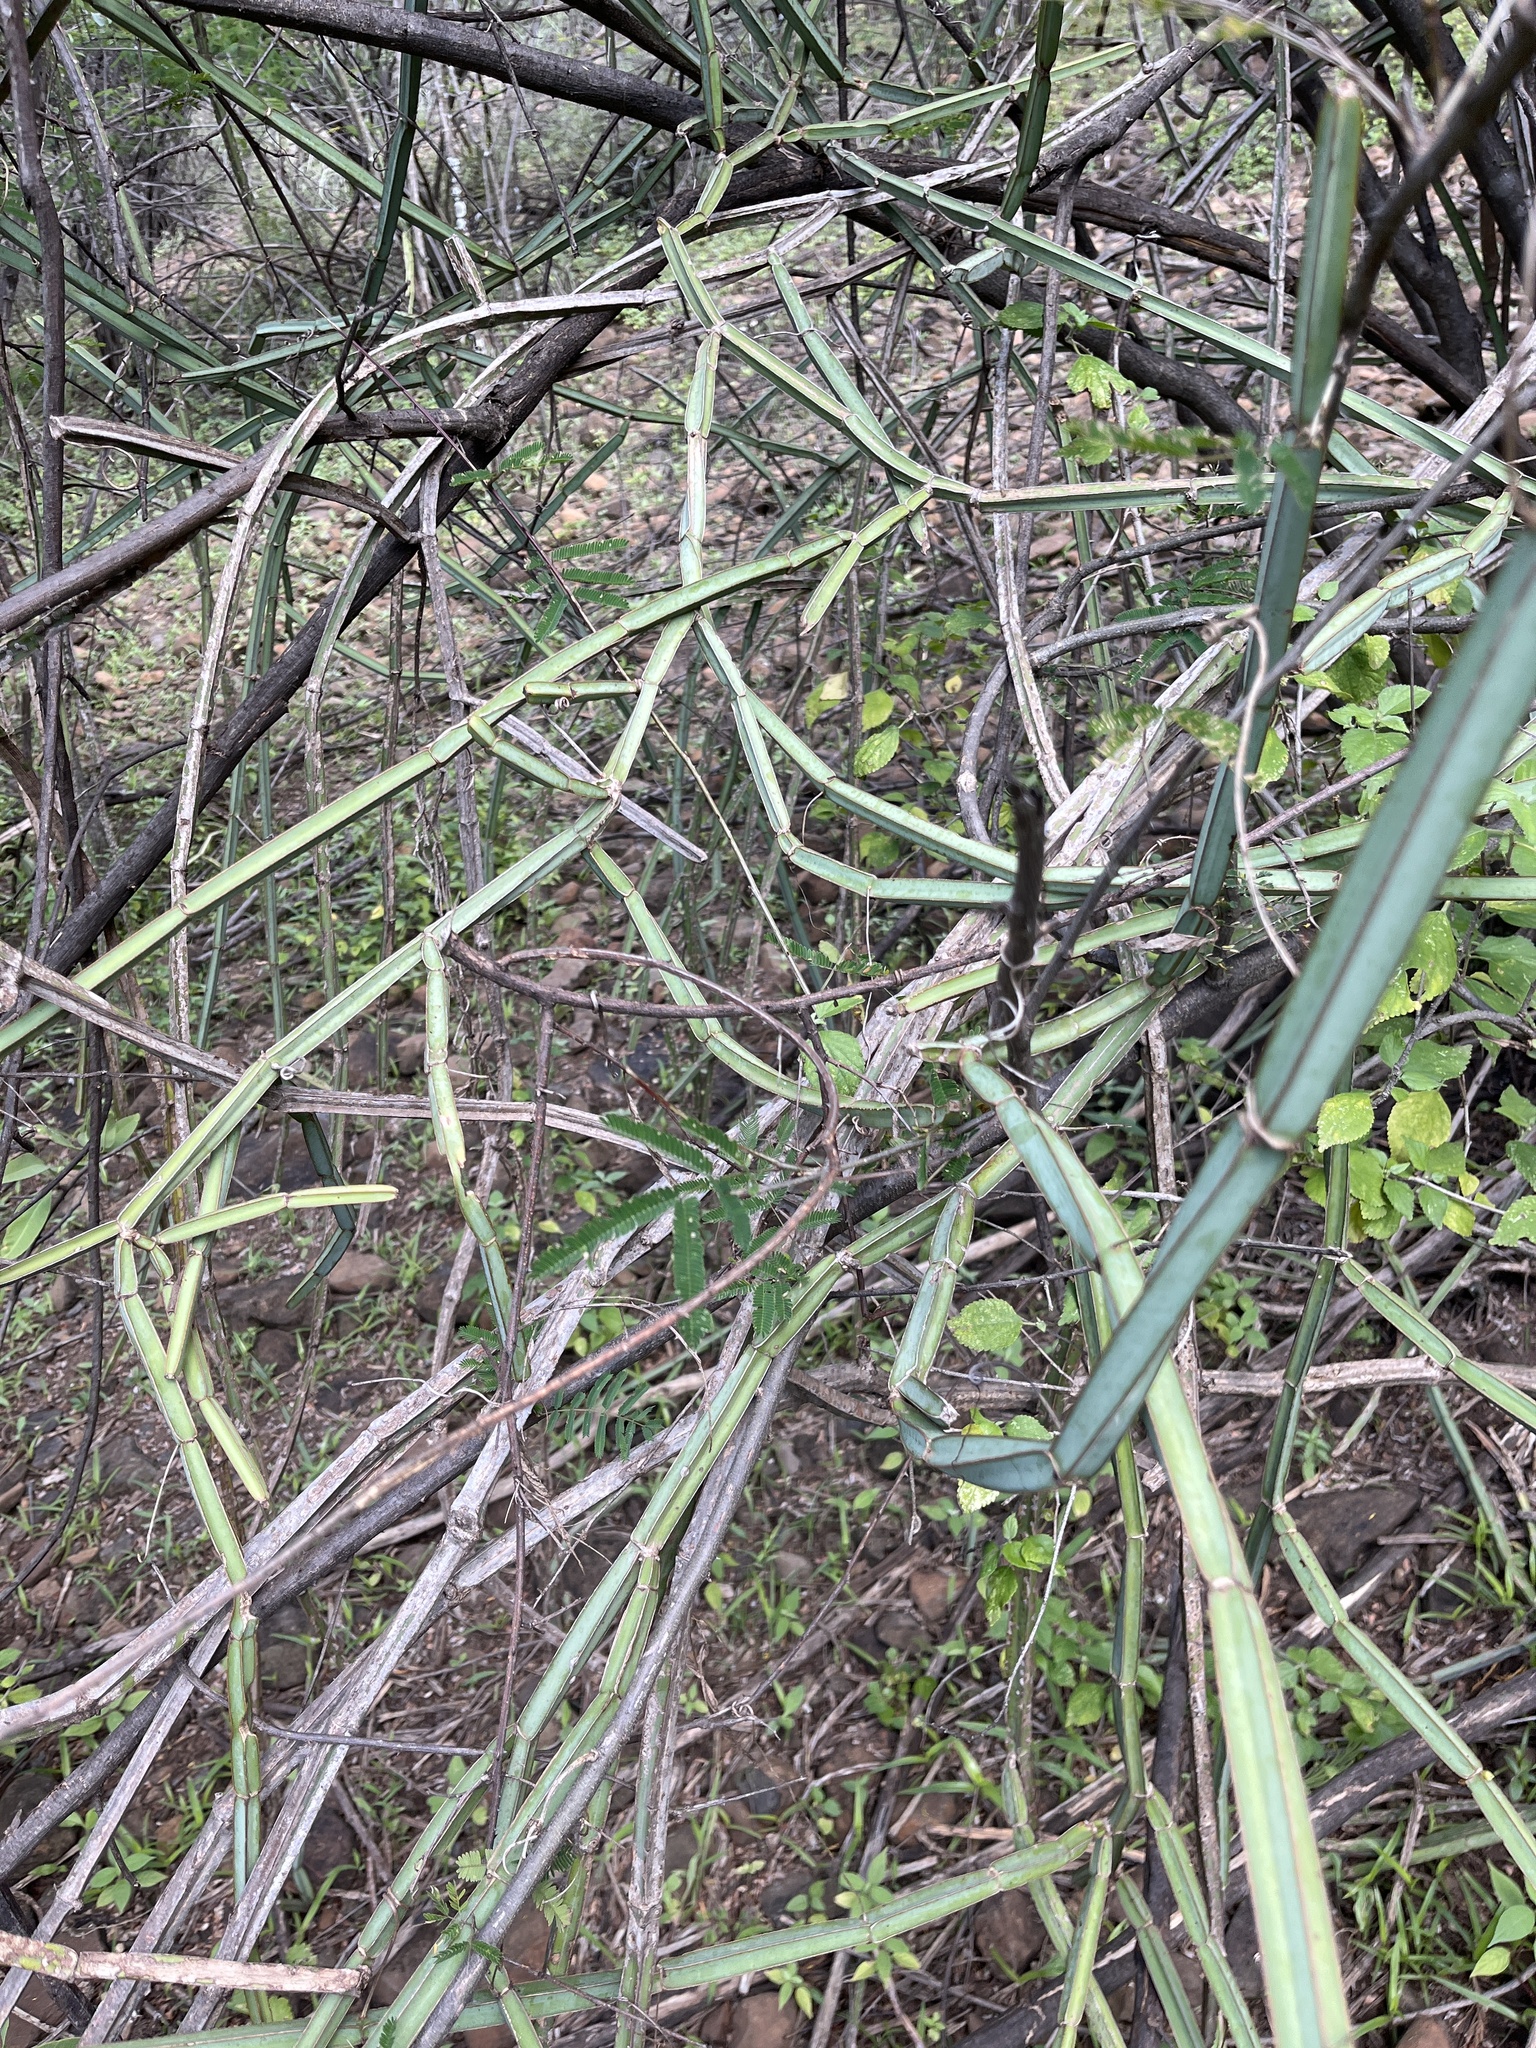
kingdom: Plantae
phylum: Tracheophyta
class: Magnoliopsida
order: Vitales
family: Vitaceae
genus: Cissus
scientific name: Cissus quadrangularis
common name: Veldt-grape
